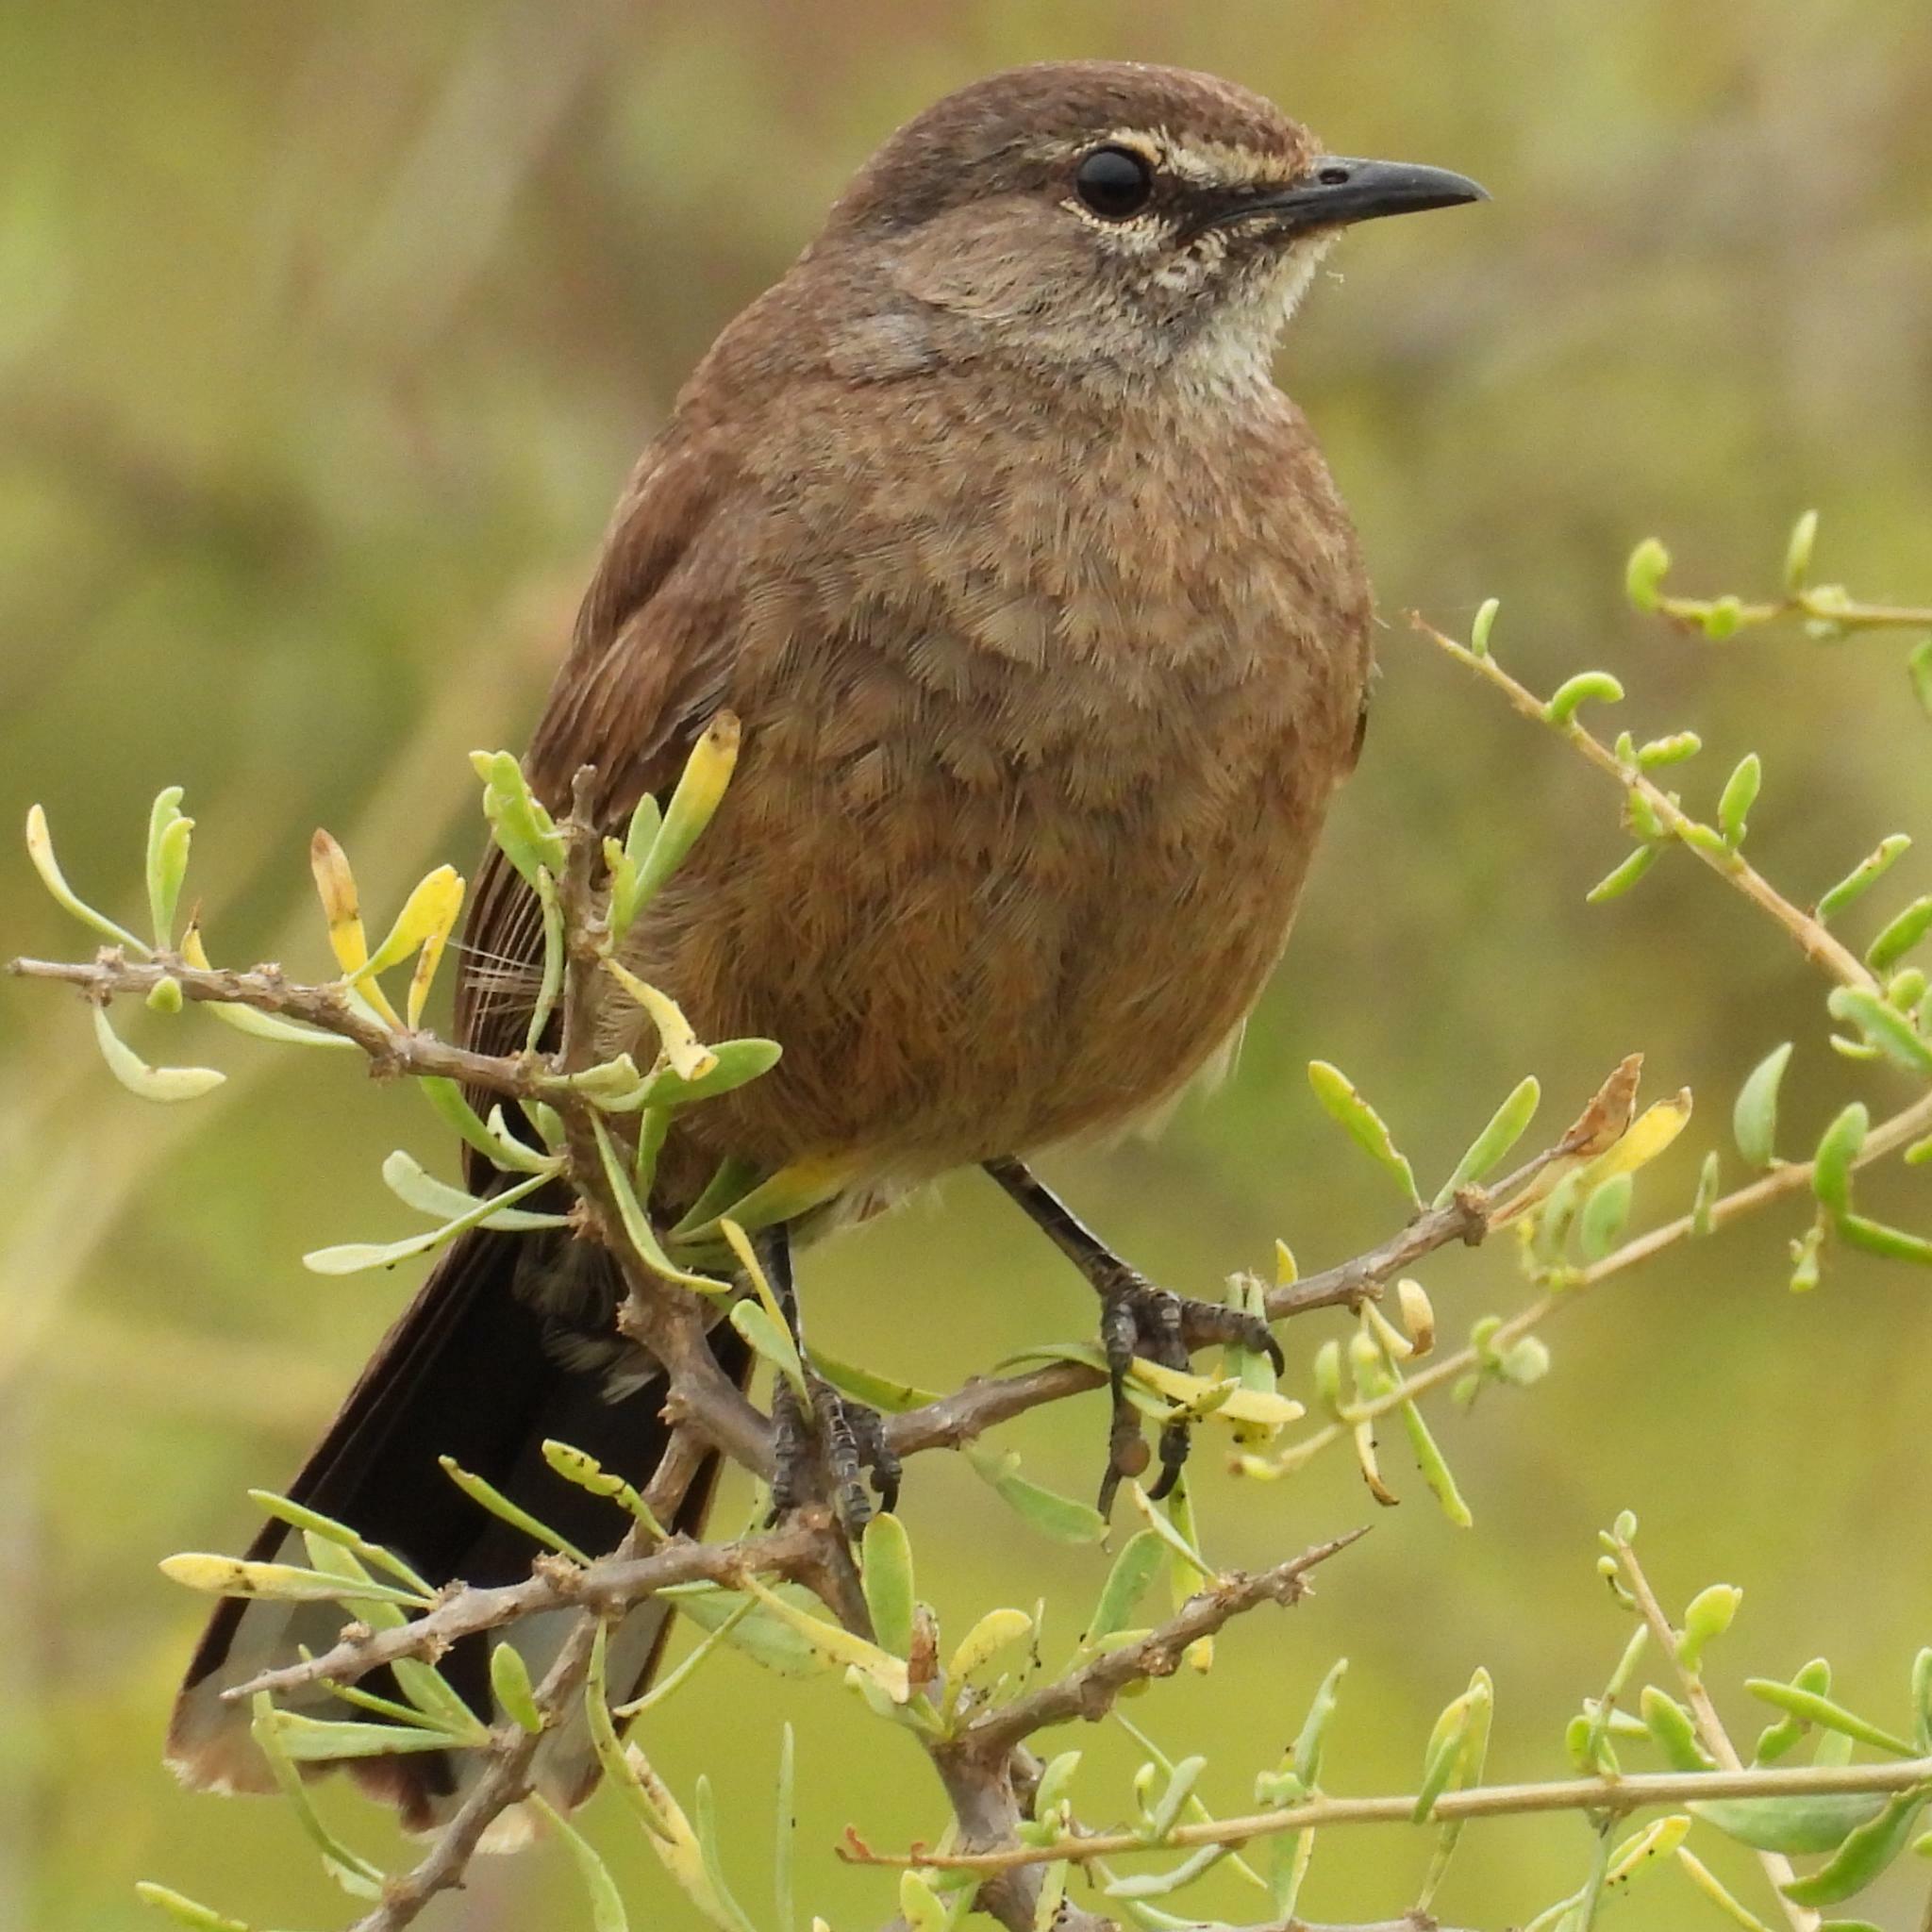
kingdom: Animalia
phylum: Chordata
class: Aves
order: Passeriformes
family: Muscicapidae
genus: Erythropygia
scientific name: Erythropygia coryphoeus
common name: Karoo scrub robin
